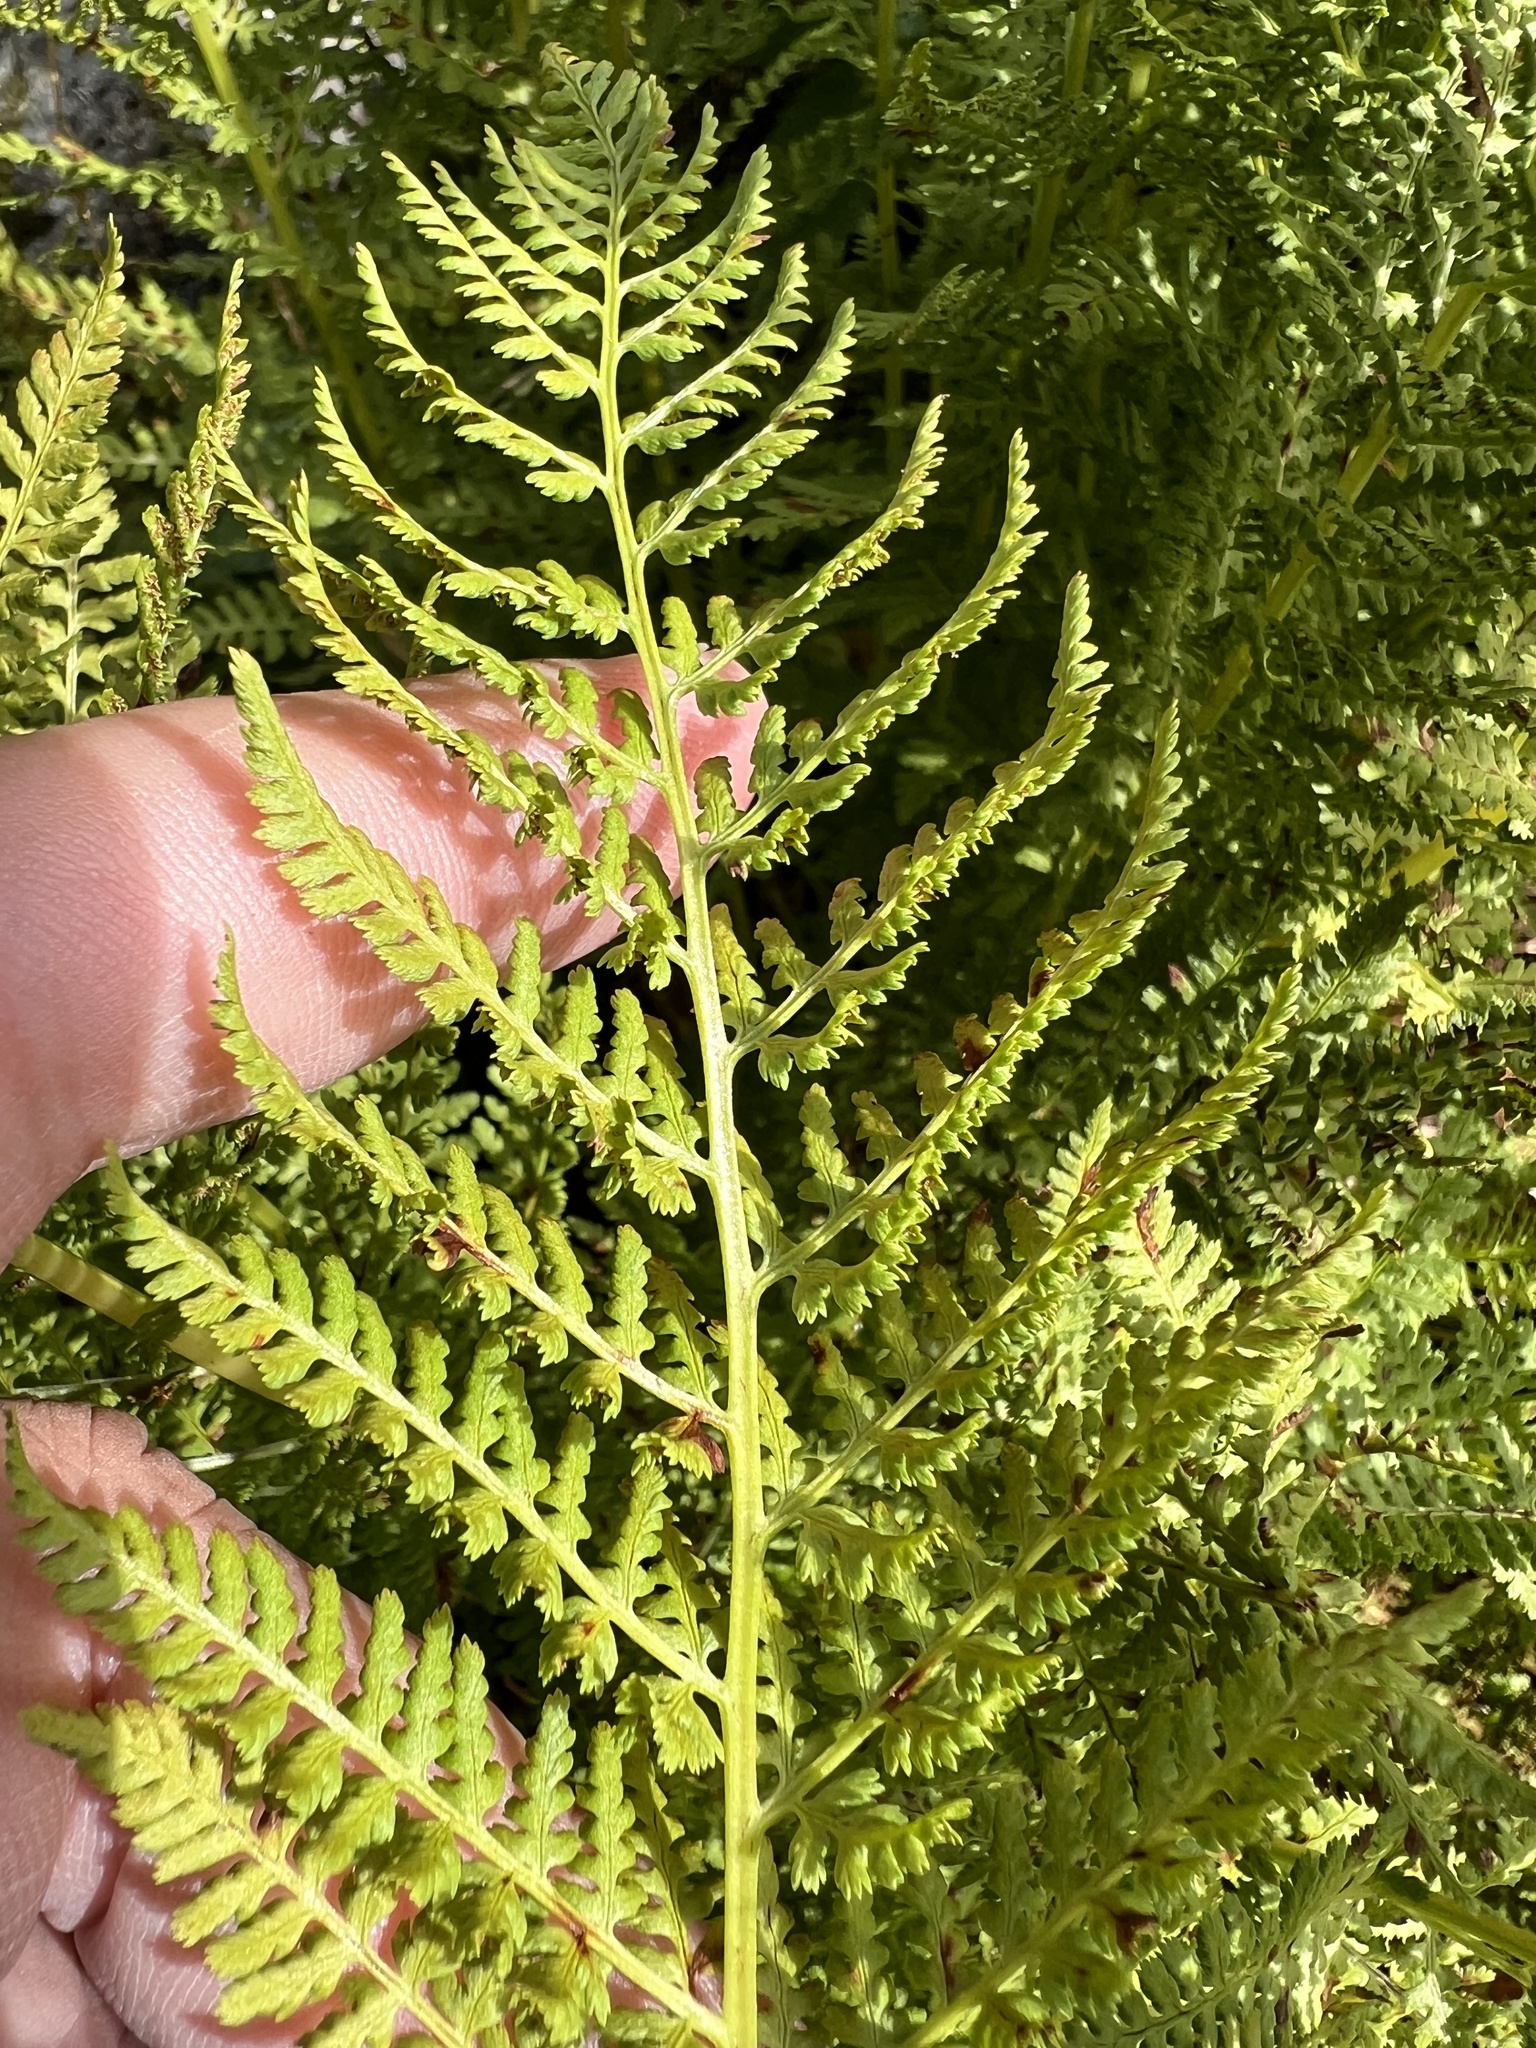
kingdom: Plantae
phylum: Tracheophyta
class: Polypodiopsida
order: Polypodiales
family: Athyriaceae
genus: Athyrium
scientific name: Athyrium americanum
